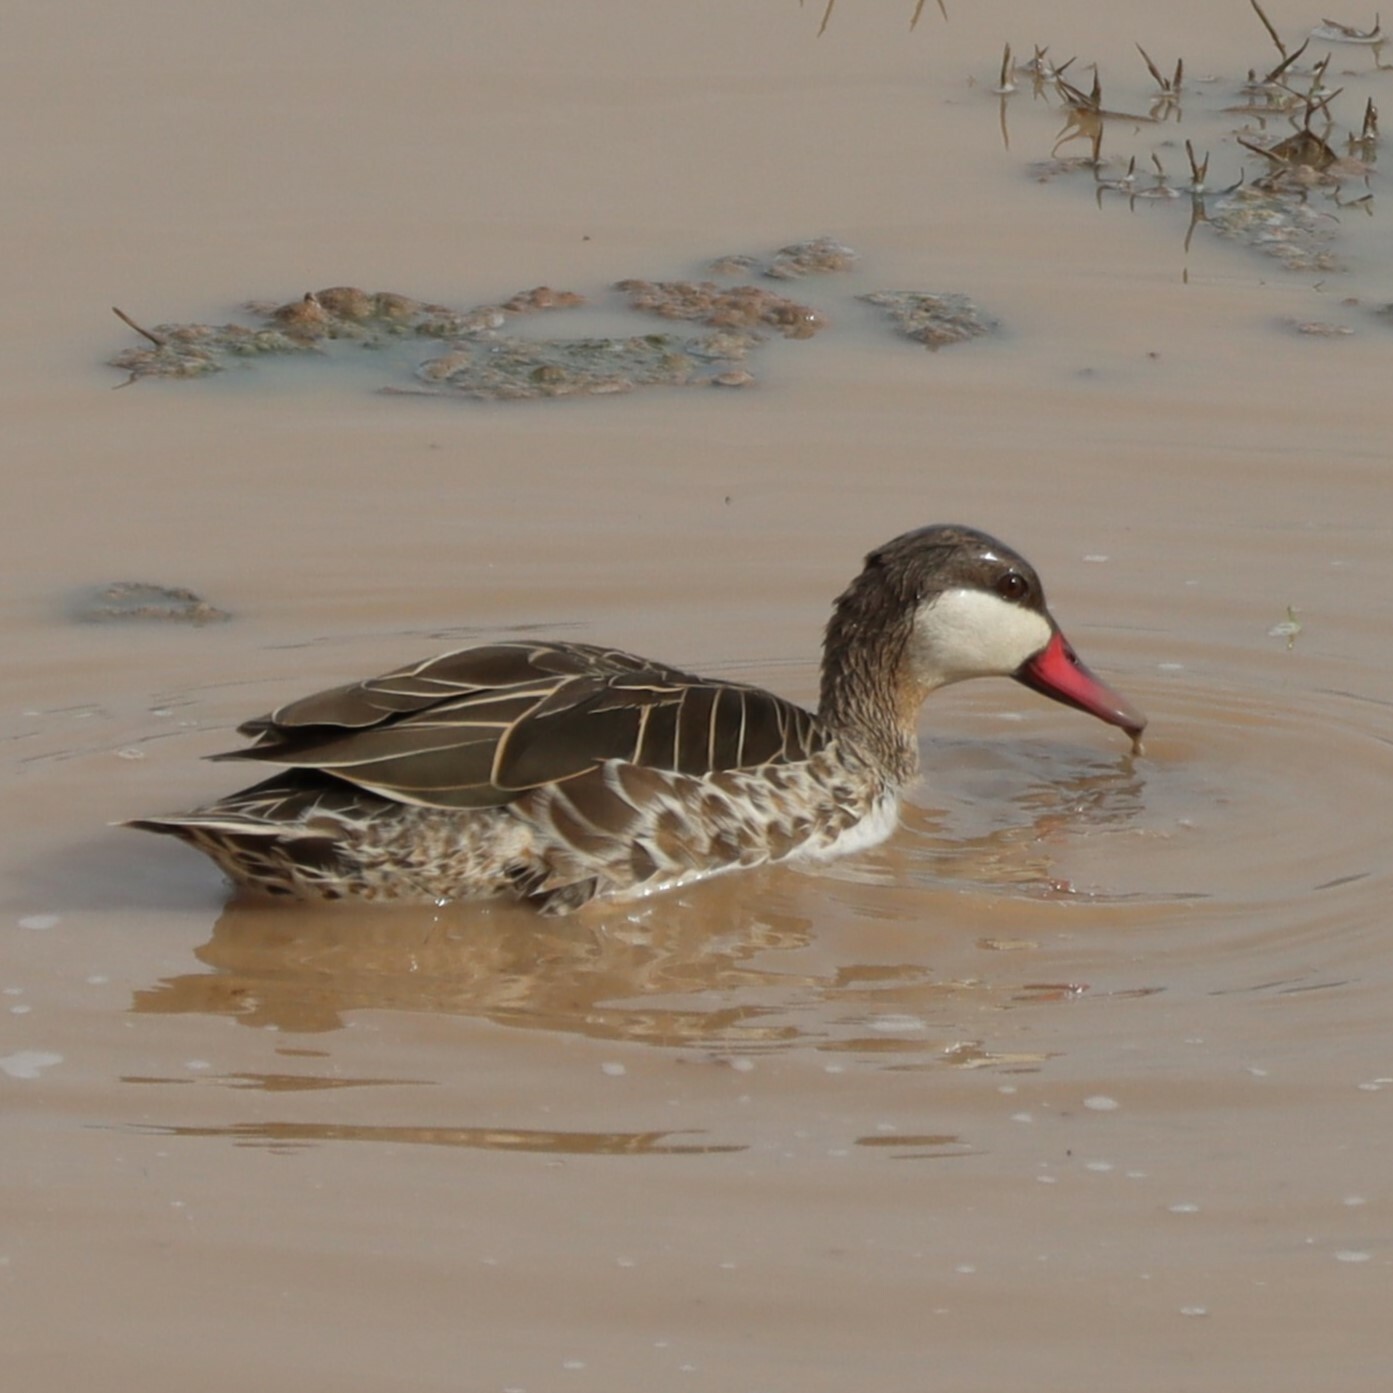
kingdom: Animalia
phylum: Chordata
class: Aves
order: Anseriformes
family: Anatidae
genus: Anas
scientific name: Anas erythrorhyncha
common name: Red-billed teal
